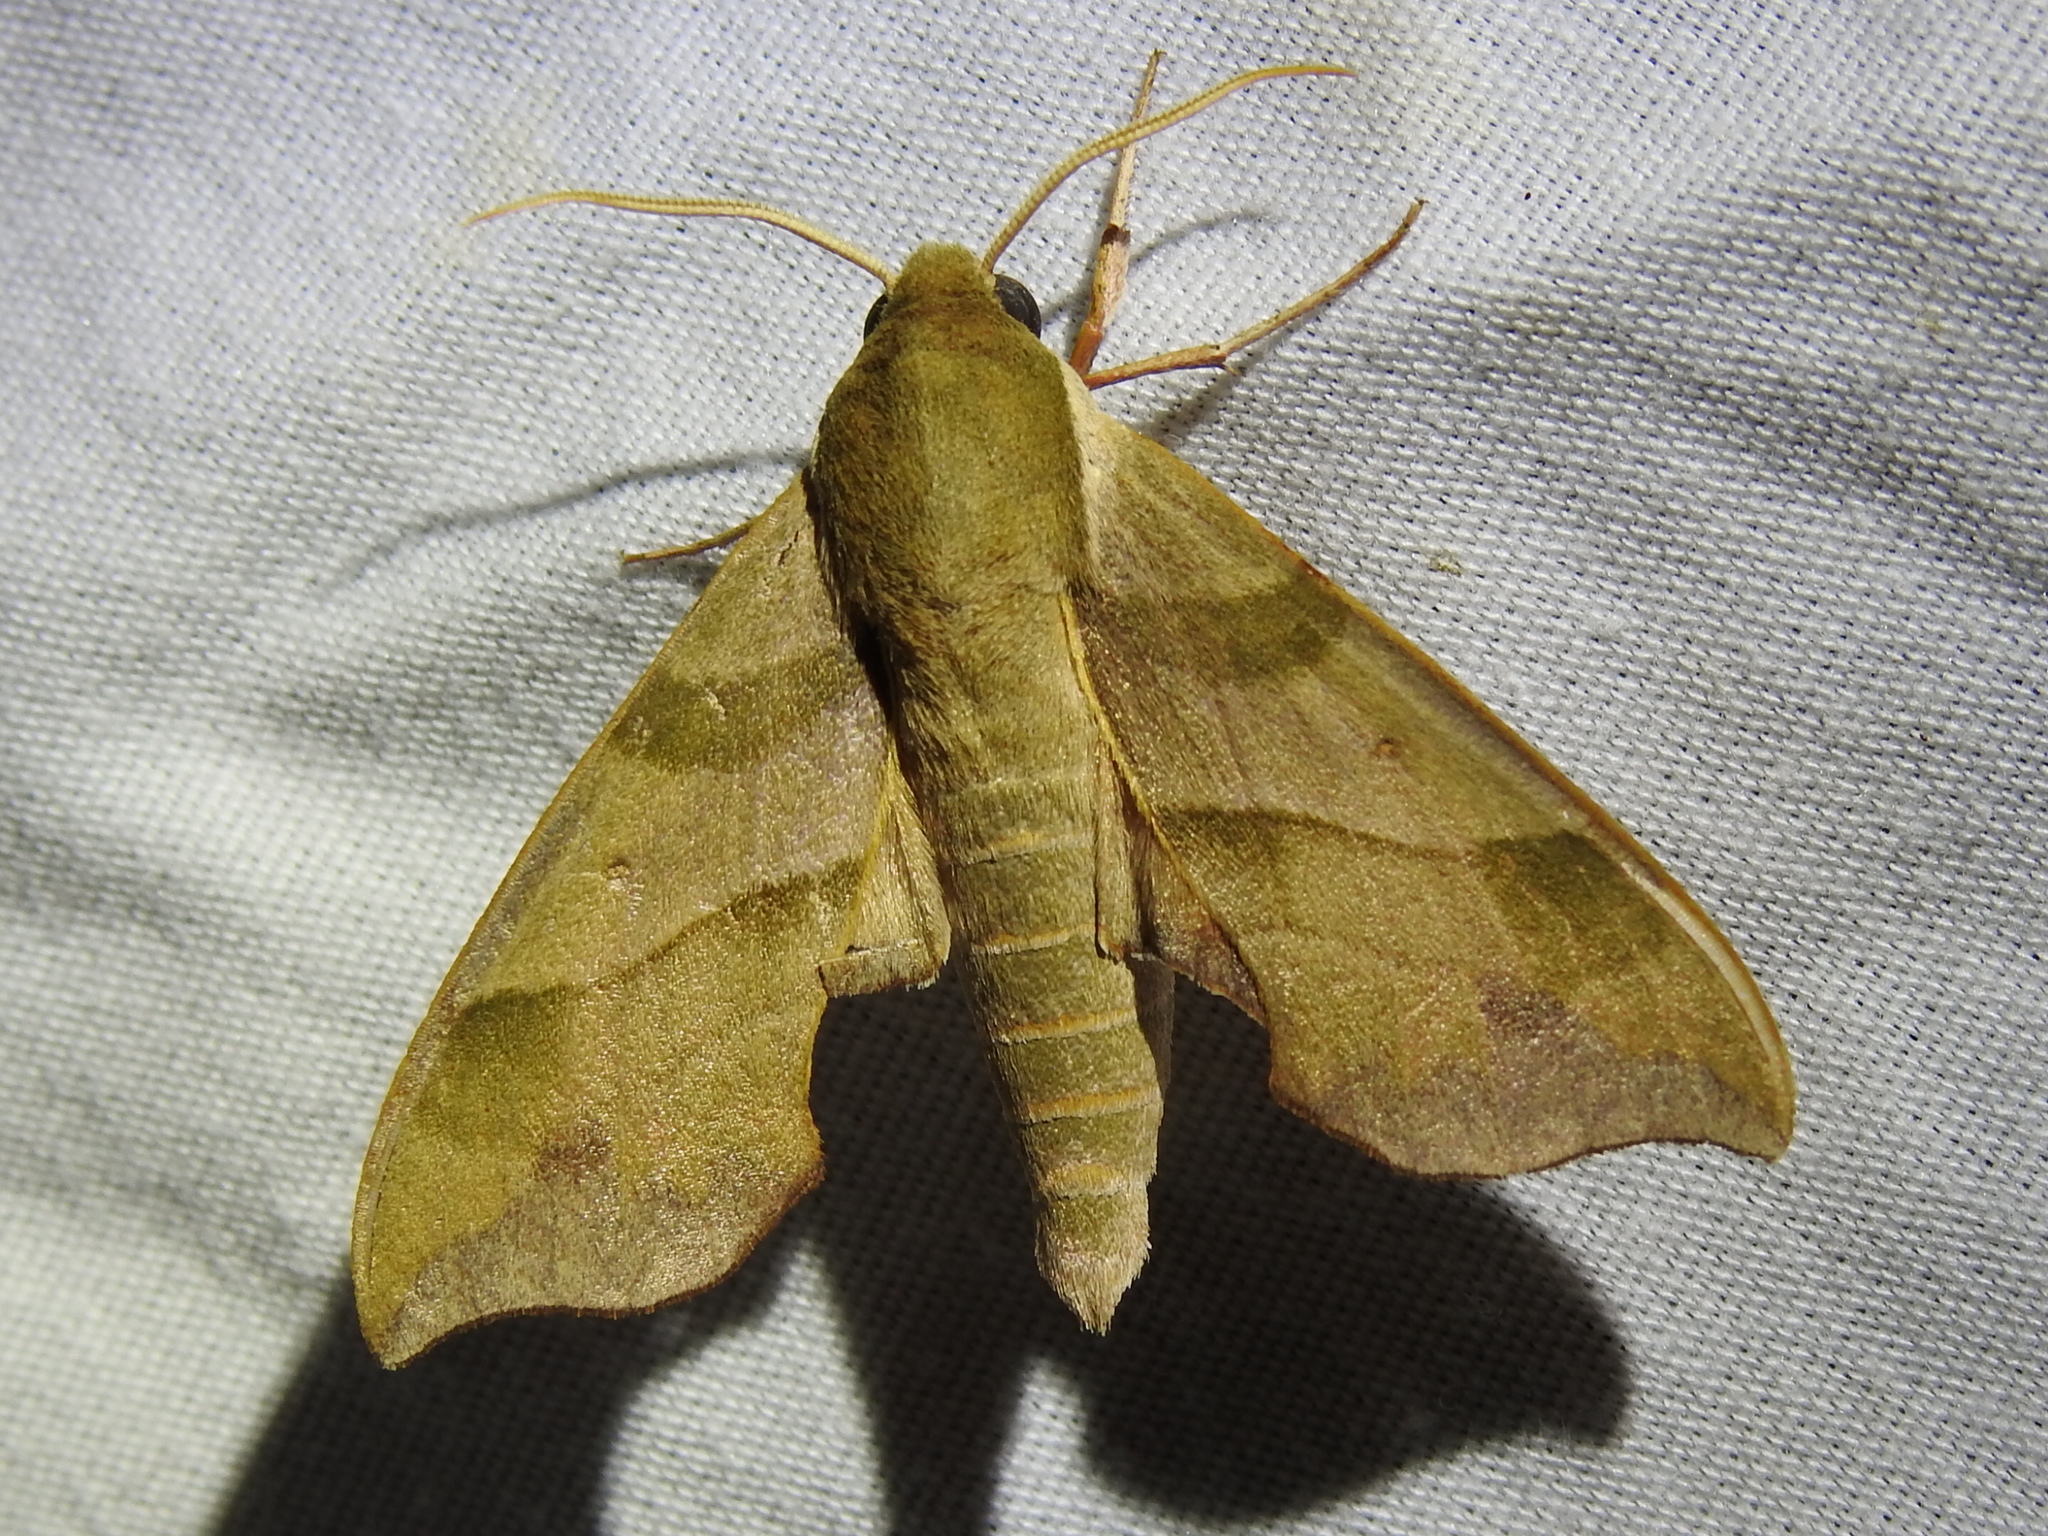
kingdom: Animalia
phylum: Arthropoda
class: Insecta
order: Lepidoptera
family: Sphingidae
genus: Darapsa
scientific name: Darapsa myron
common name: Hog sphinx
